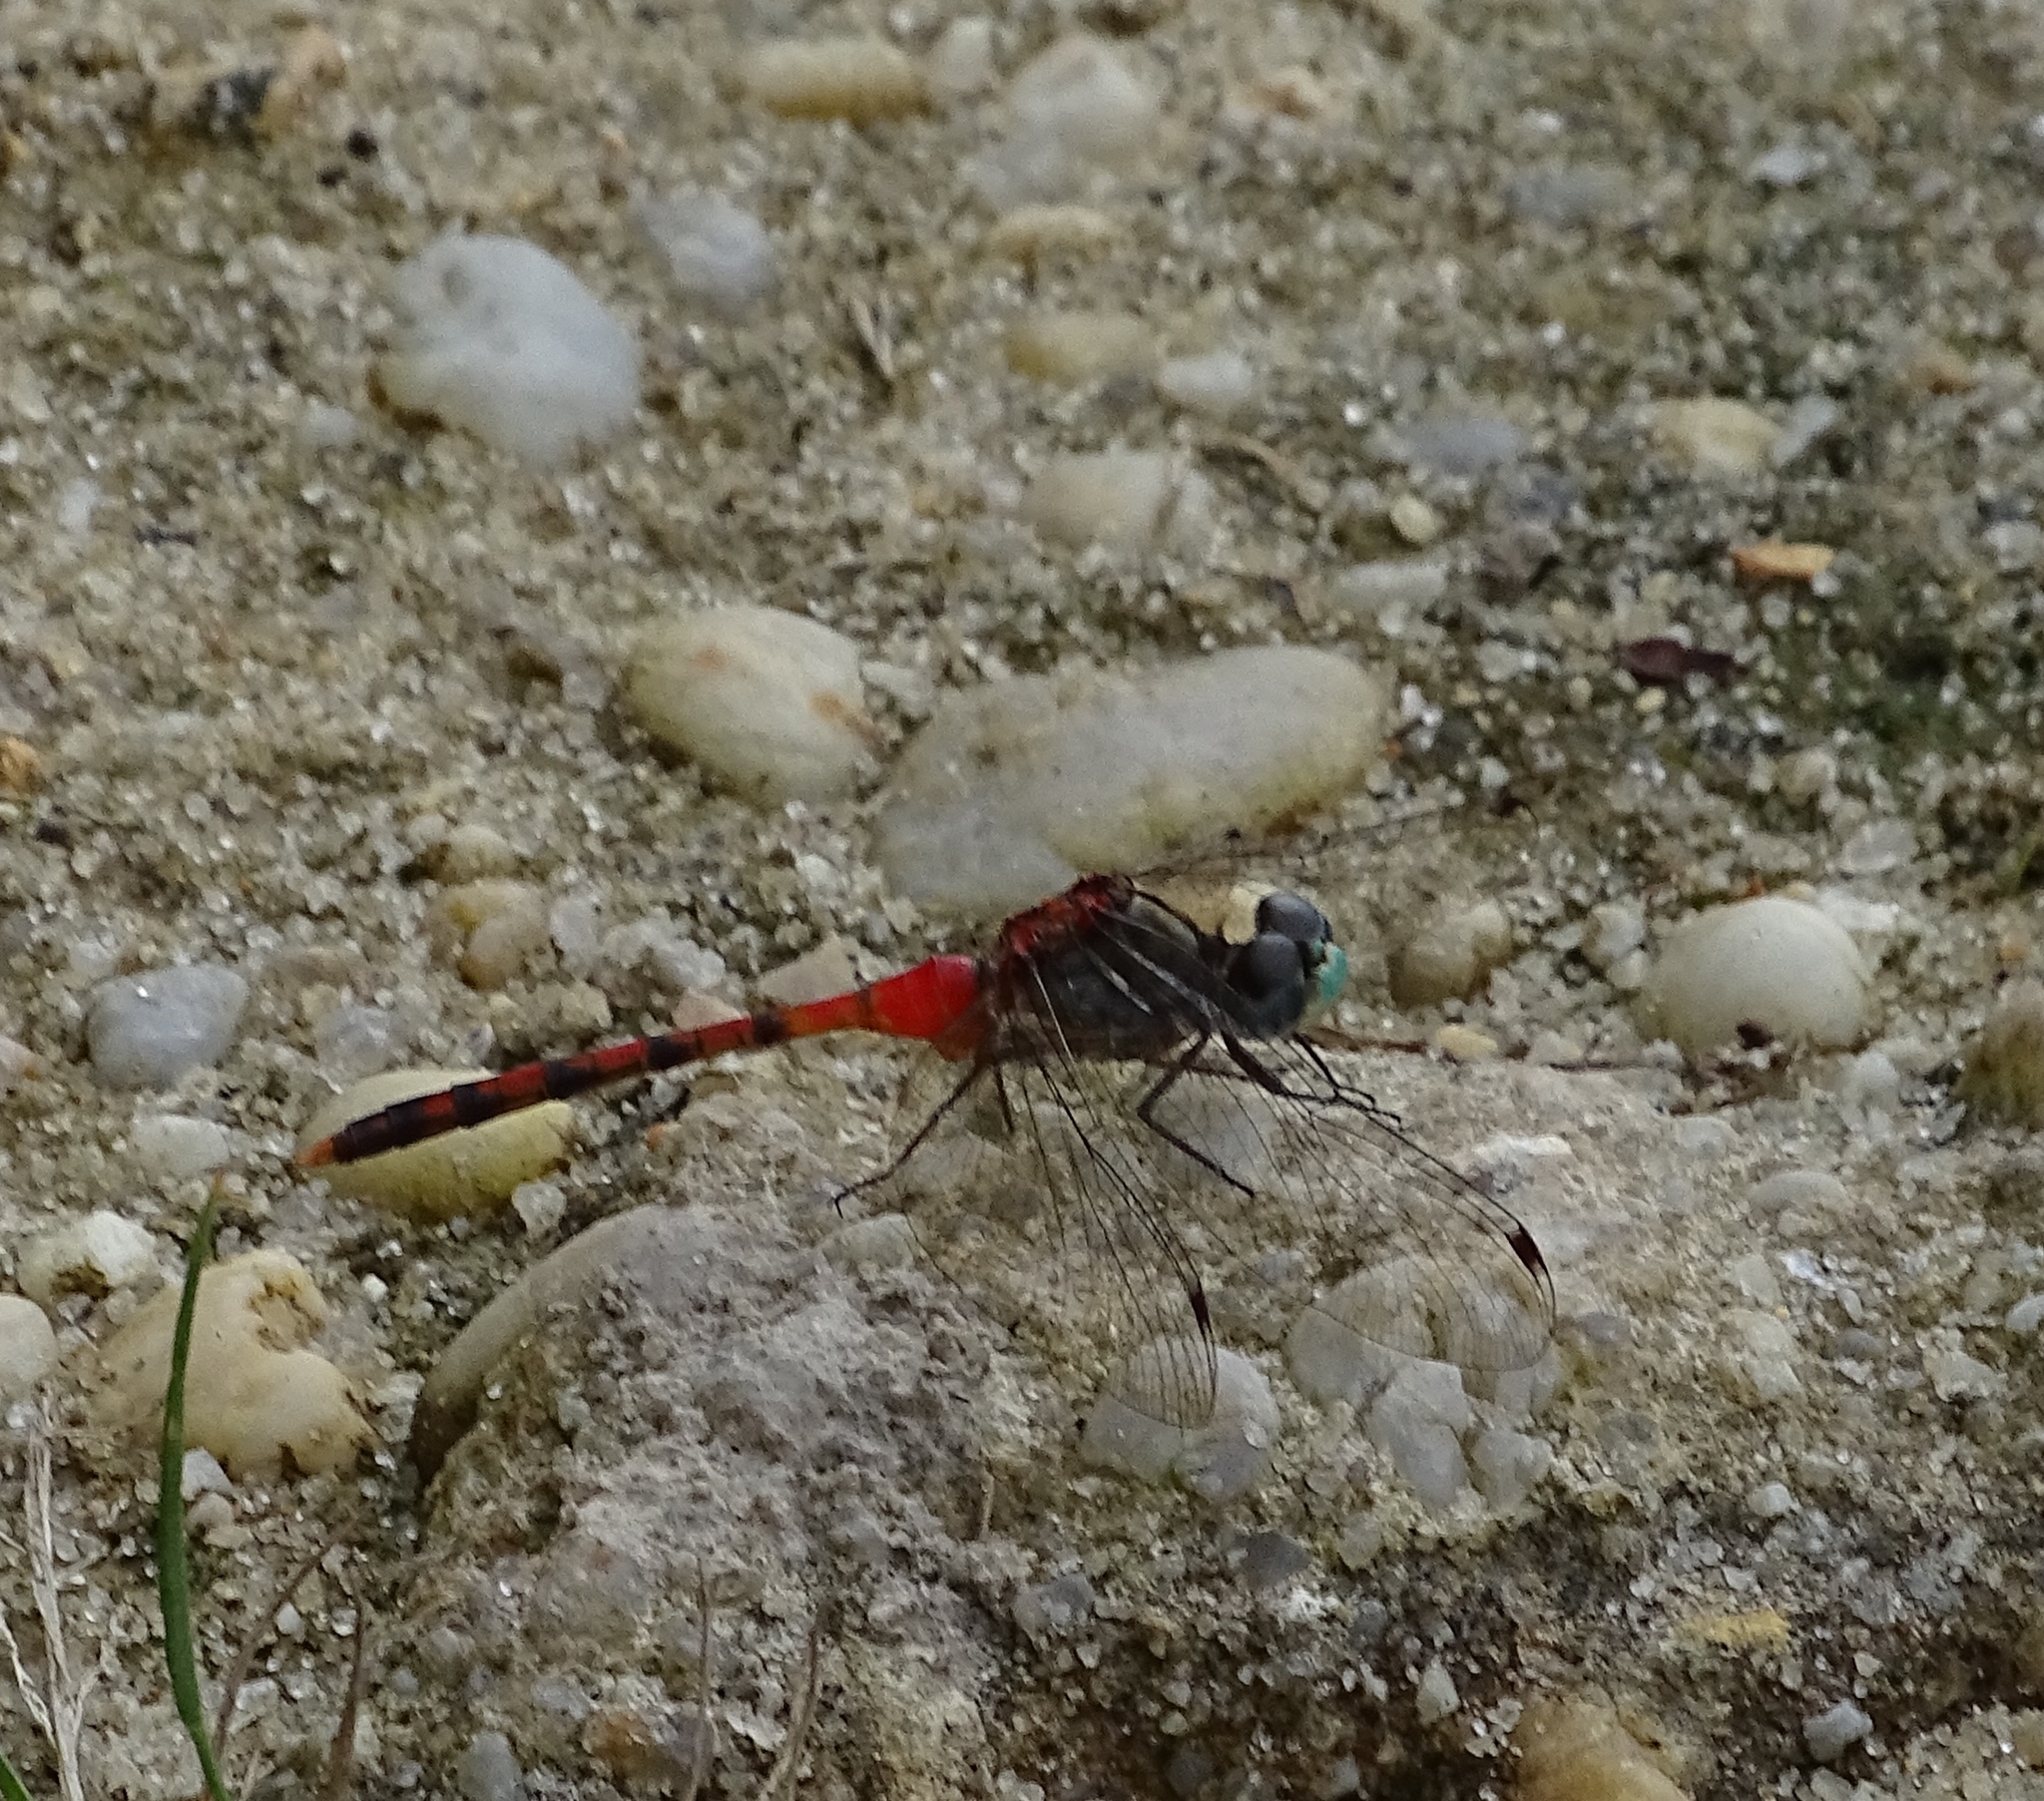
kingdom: Animalia
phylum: Arthropoda
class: Insecta
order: Odonata
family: Libellulidae
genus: Sympetrum
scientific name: Sympetrum ambiguum
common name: Blue-faced meadowhawk
